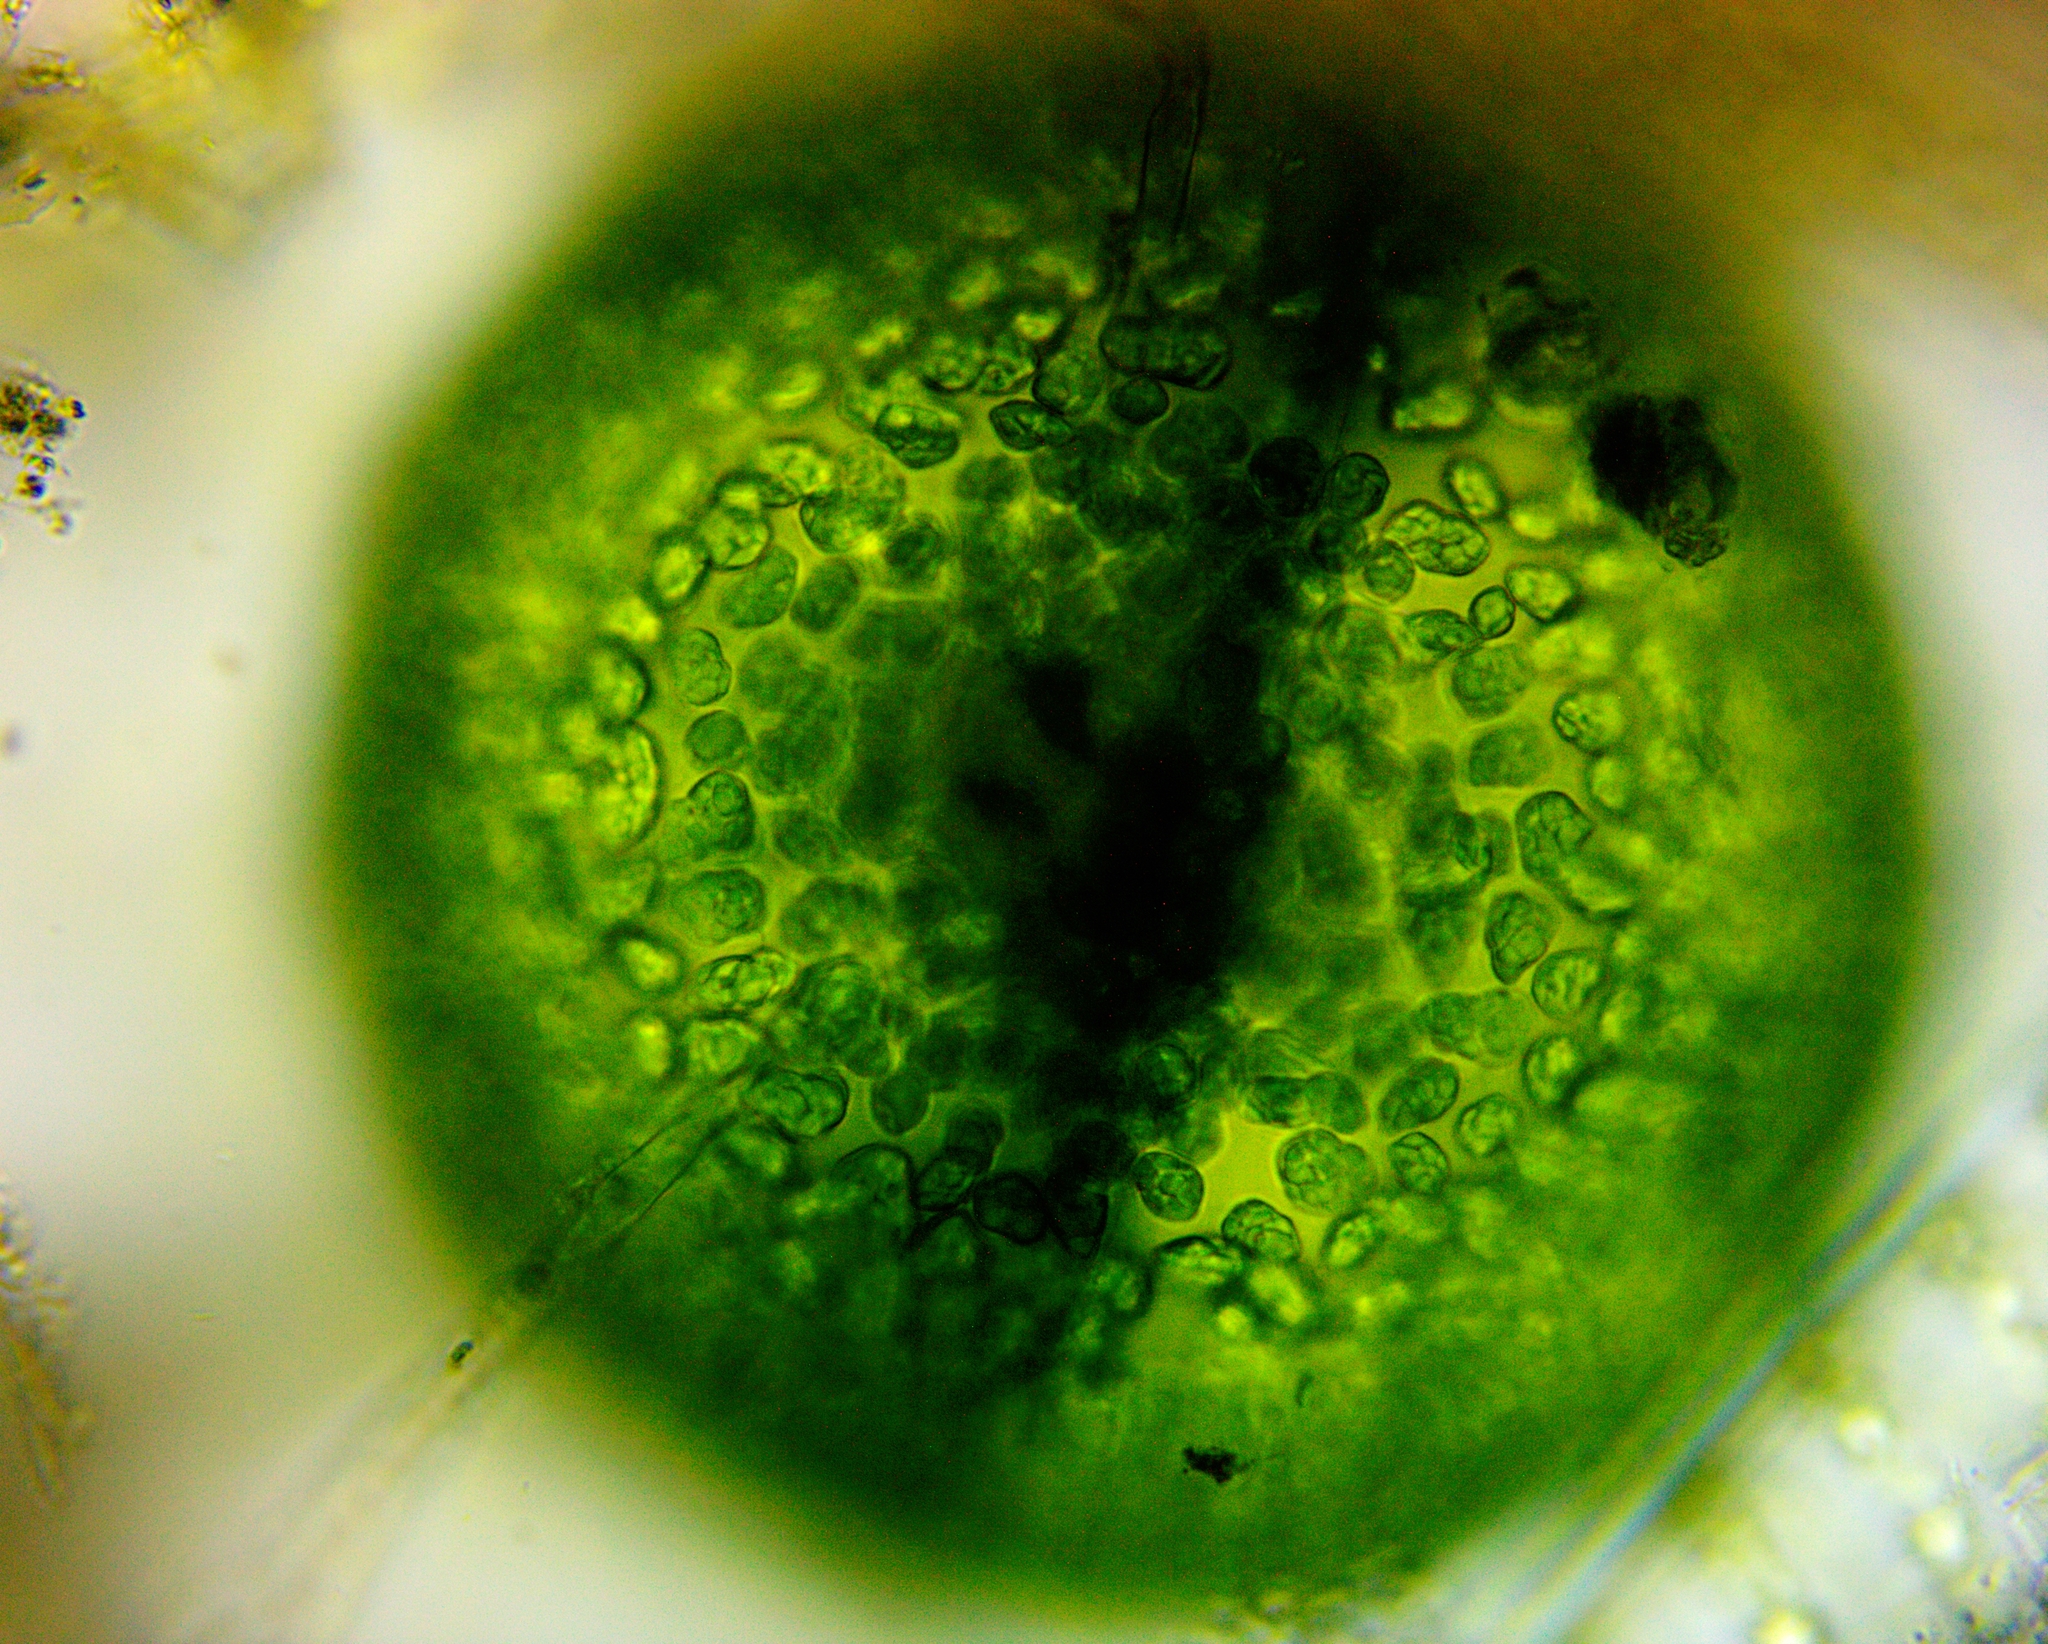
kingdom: Plantae
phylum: Chlorophyta
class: Trebouxiophyceae
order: Oocystales
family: Oocystaceae
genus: Eremosphaera
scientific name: Eremosphaera viridis
